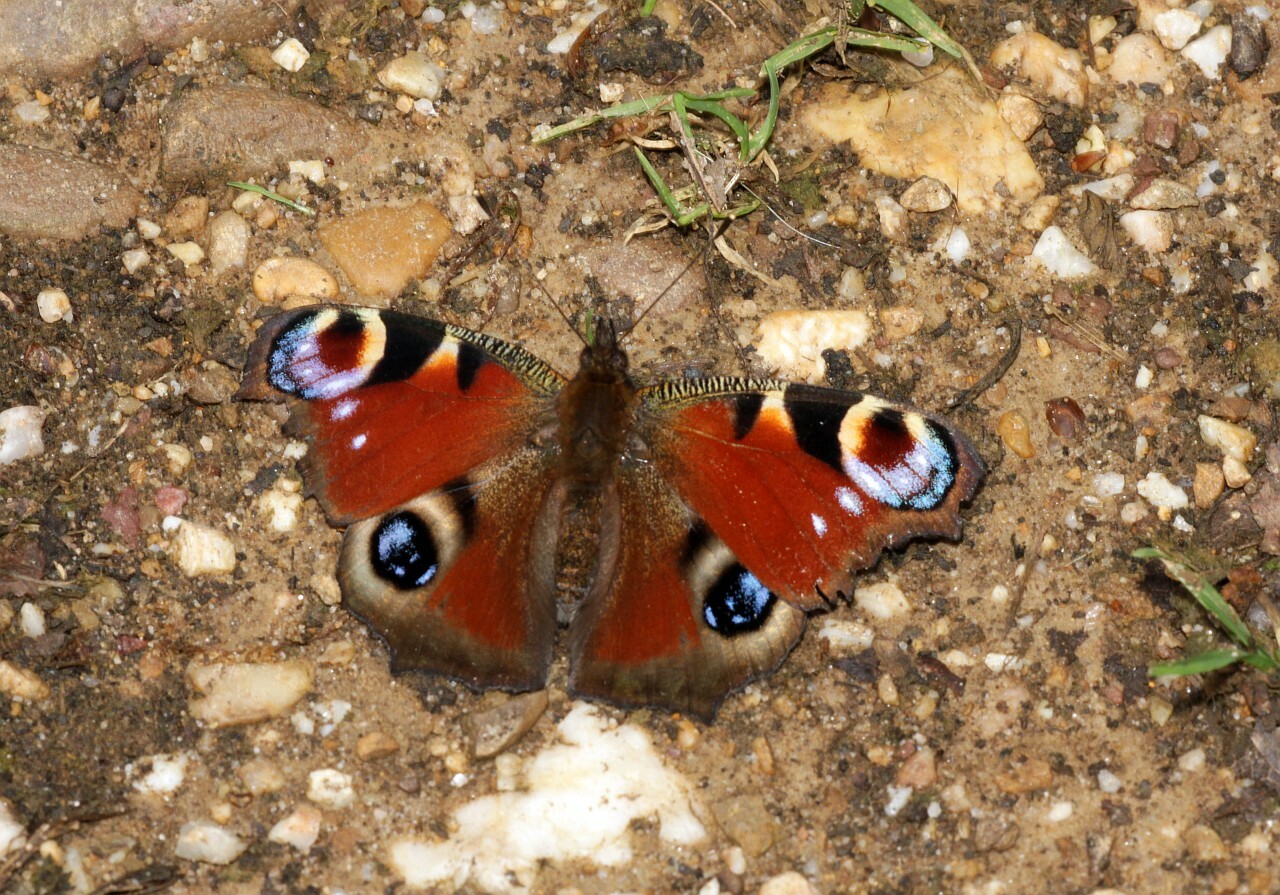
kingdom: Animalia
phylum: Arthropoda
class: Insecta
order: Lepidoptera
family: Nymphalidae
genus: Aglais
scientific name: Aglais io
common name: Peacock
